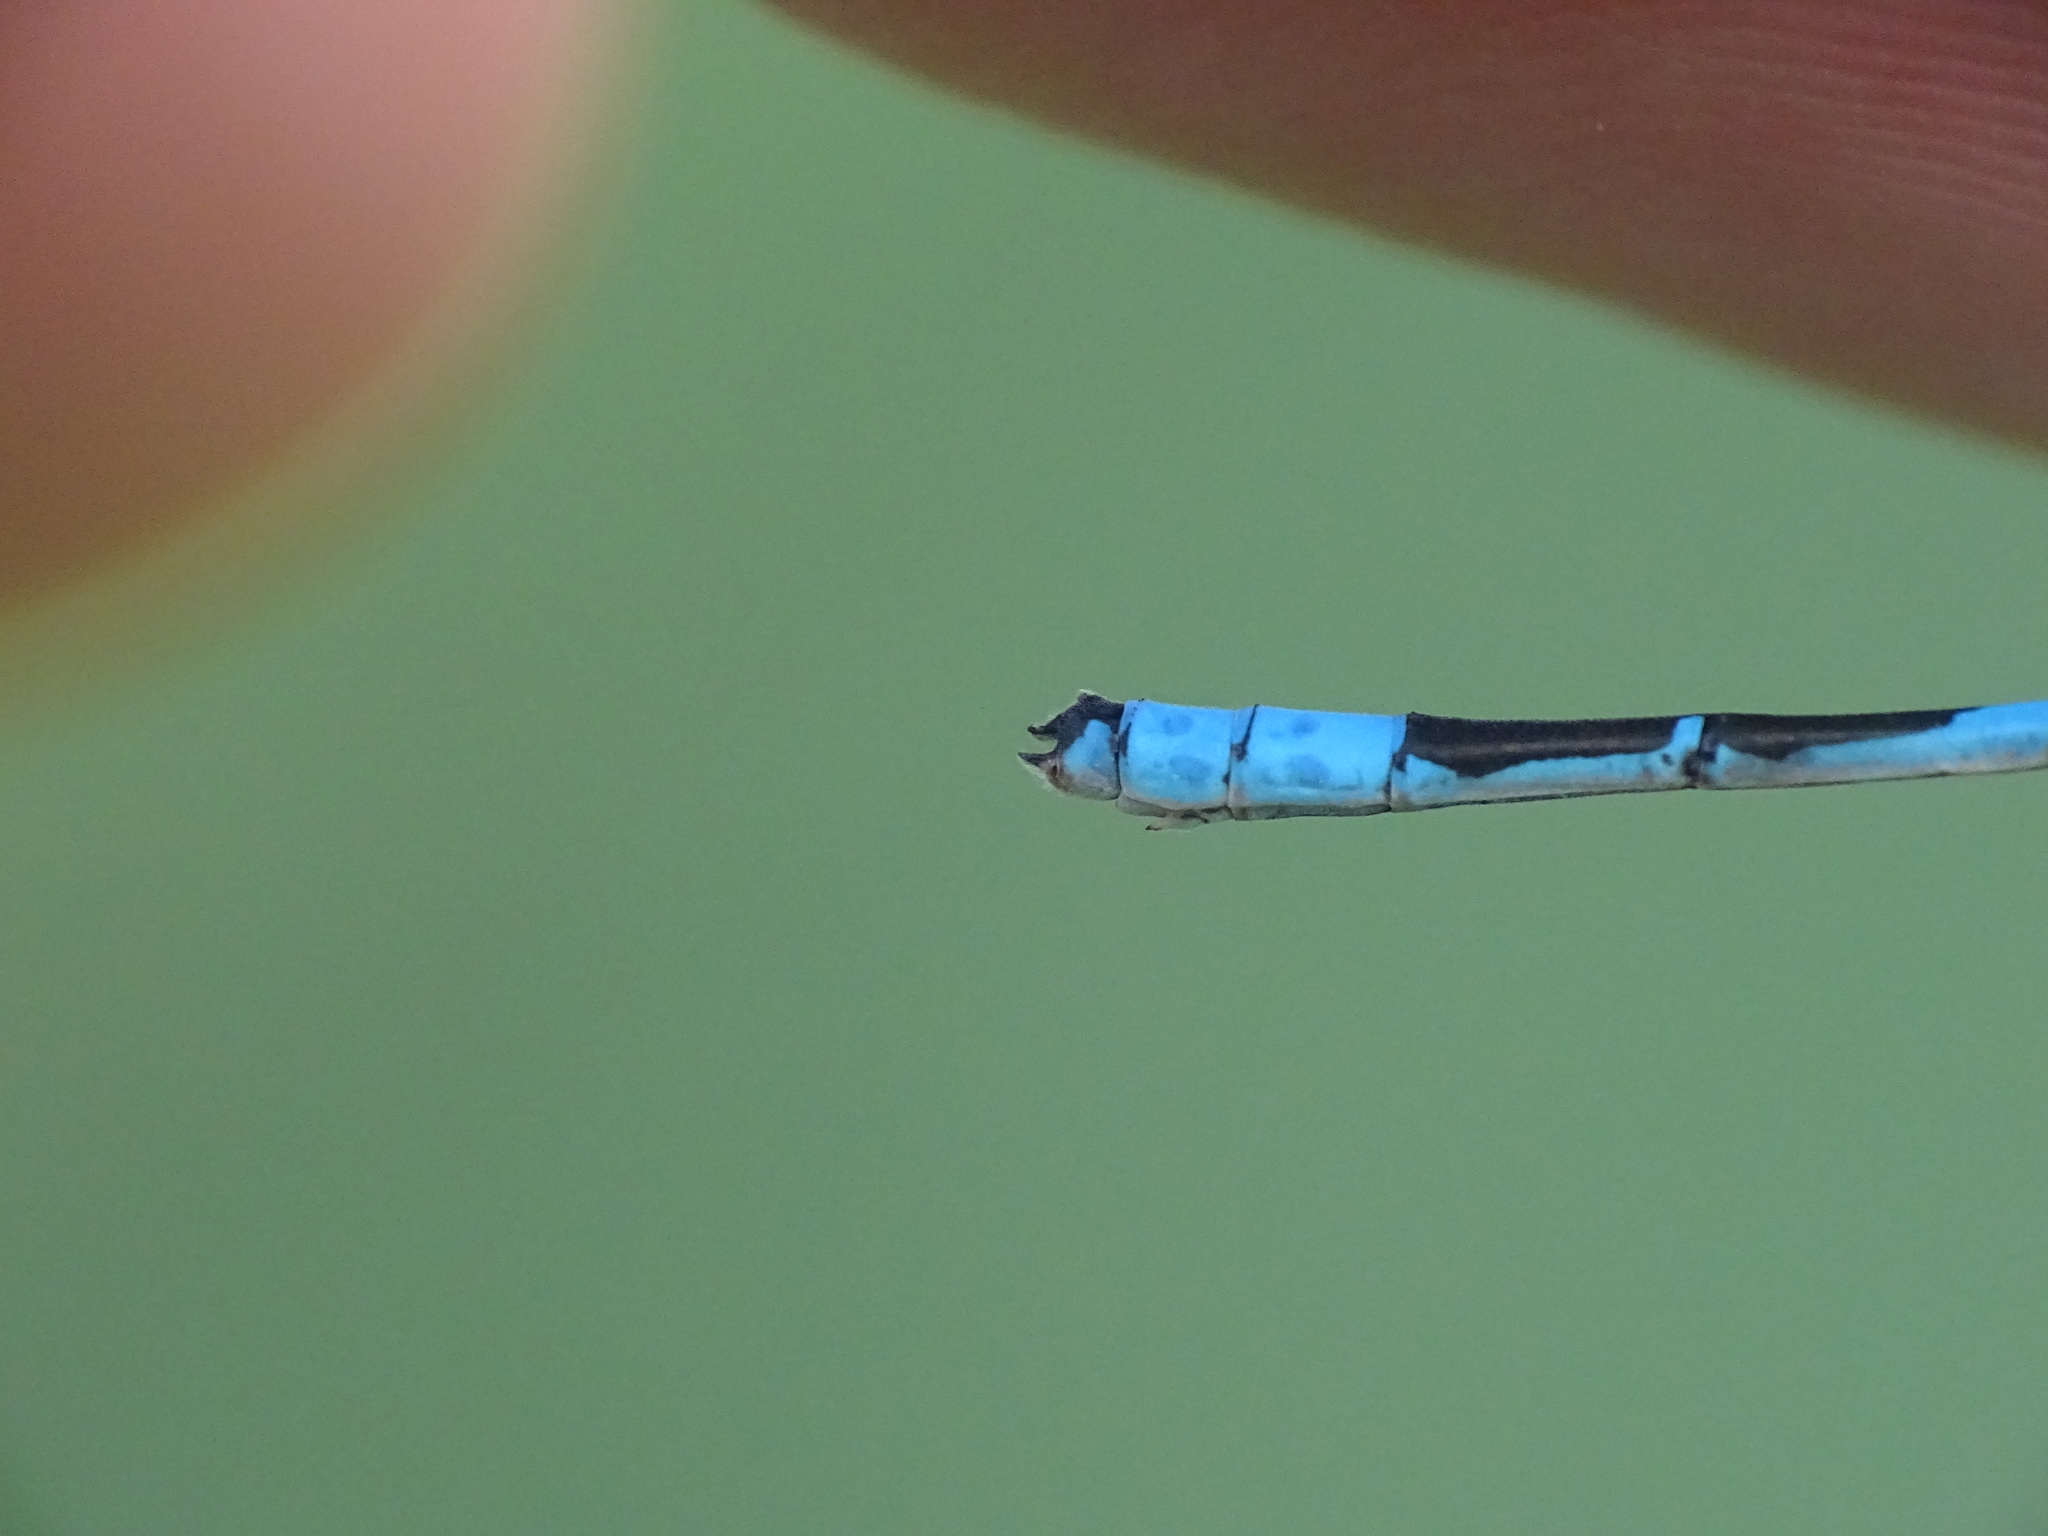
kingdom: Animalia
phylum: Arthropoda
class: Insecta
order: Odonata
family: Coenagrionidae
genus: Enallagma
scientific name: Enallagma hageni
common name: Hagen's bluet
